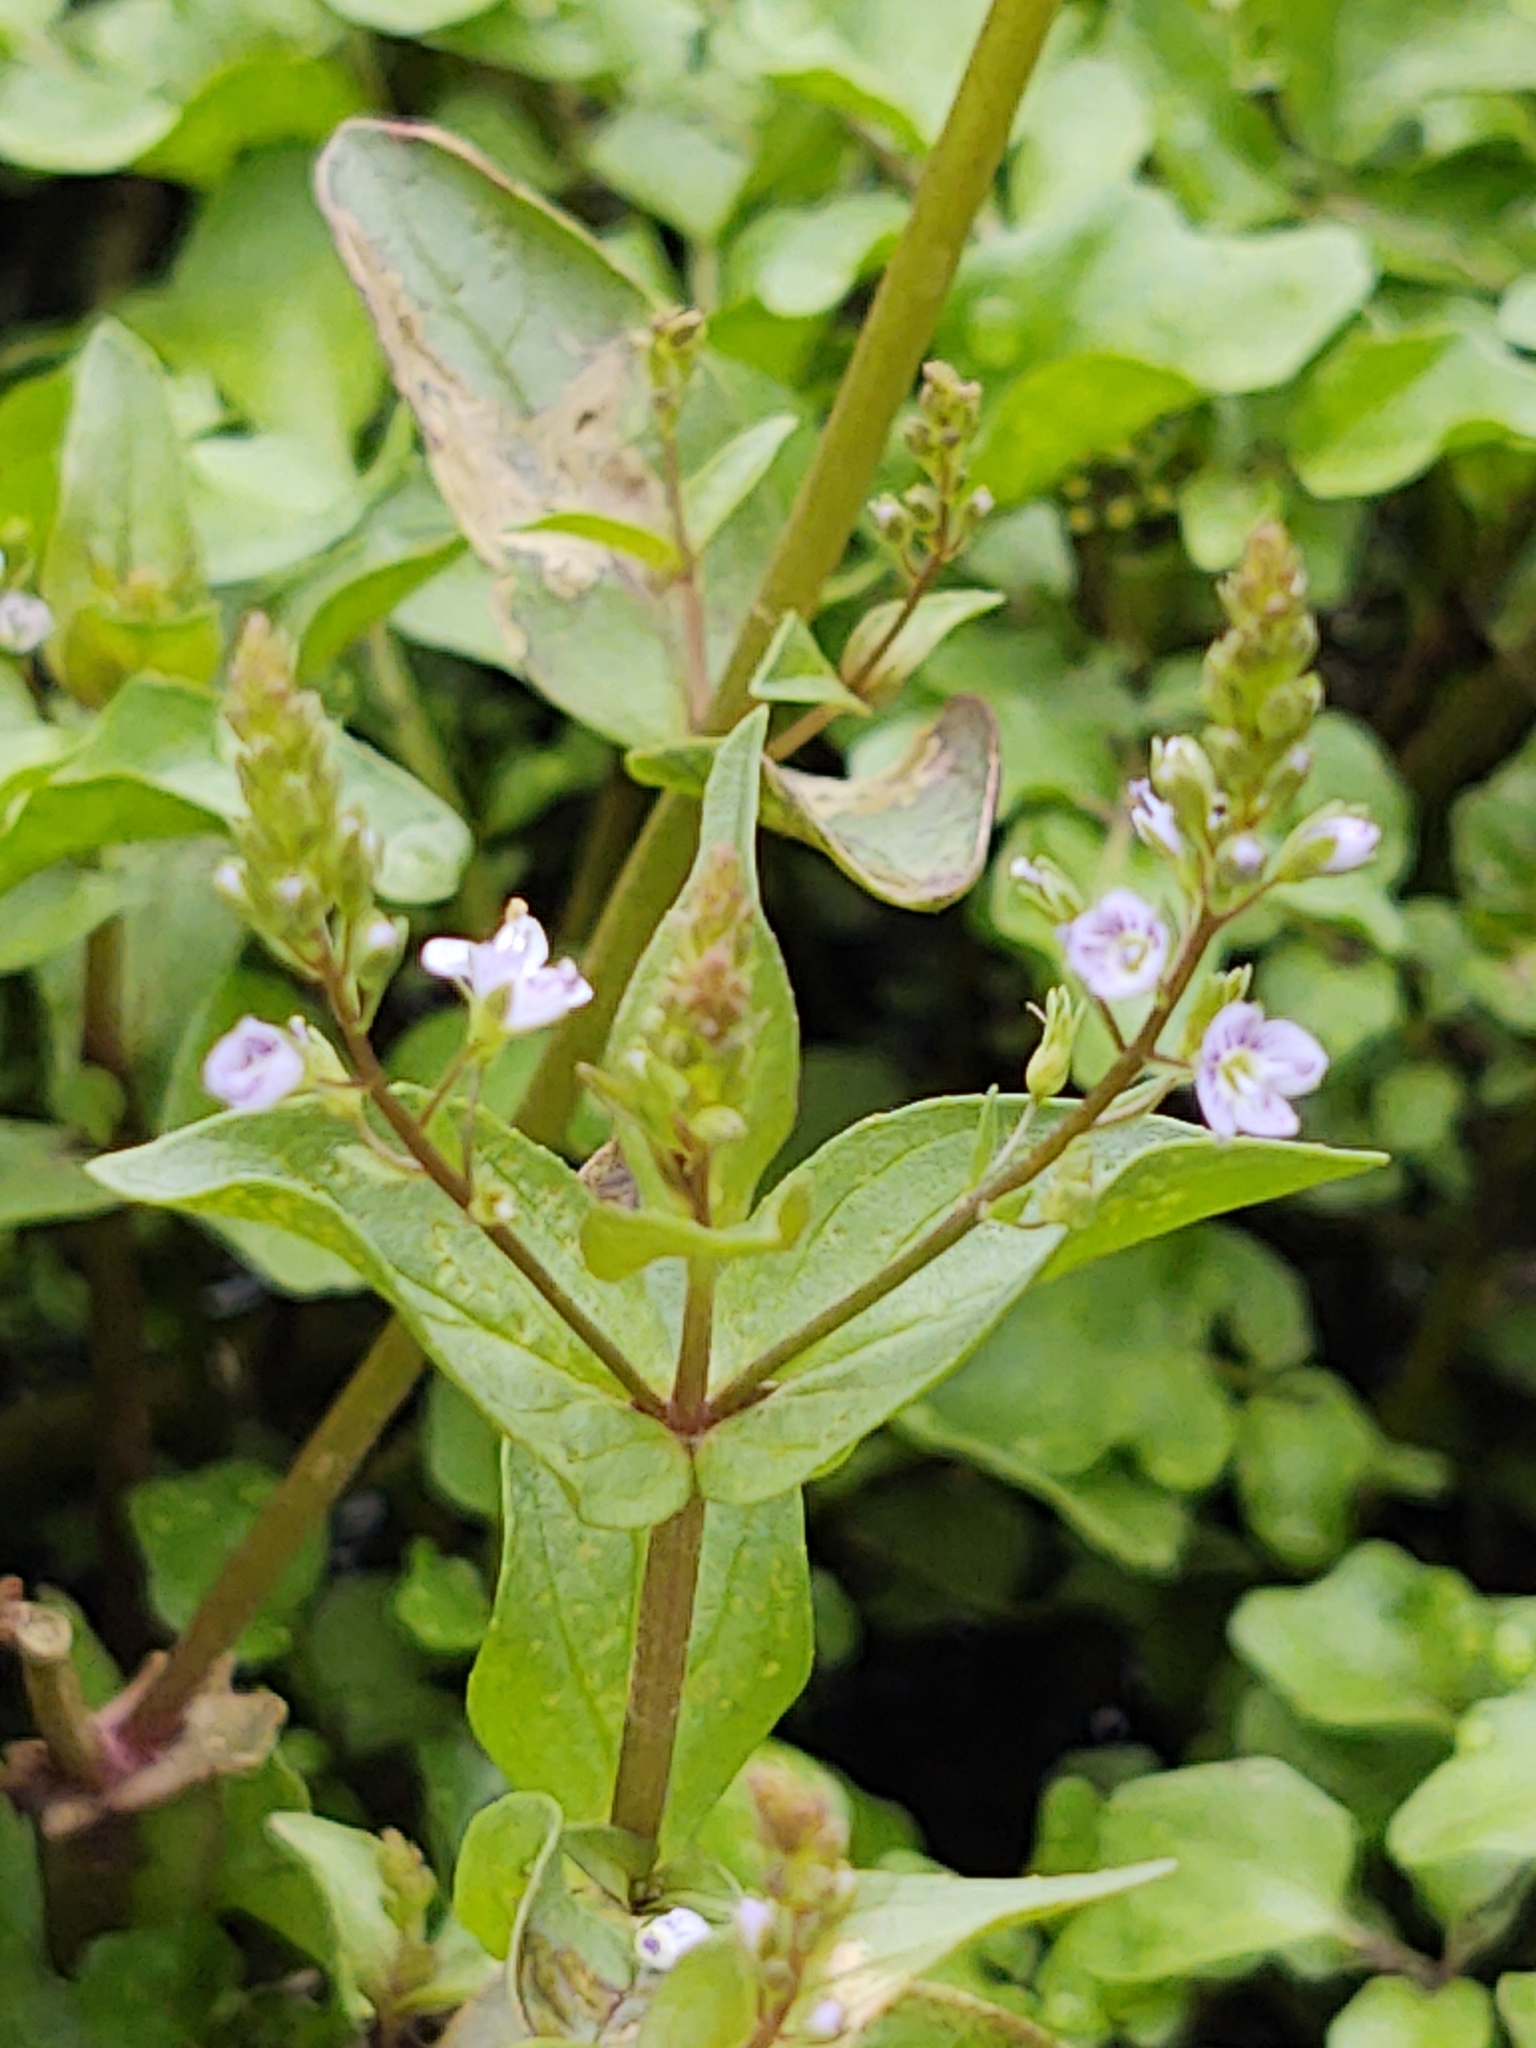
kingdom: Plantae
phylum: Tracheophyta
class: Magnoliopsida
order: Lamiales
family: Plantaginaceae
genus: Veronica
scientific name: Veronica anagallis-aquatica
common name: Water speedwell
